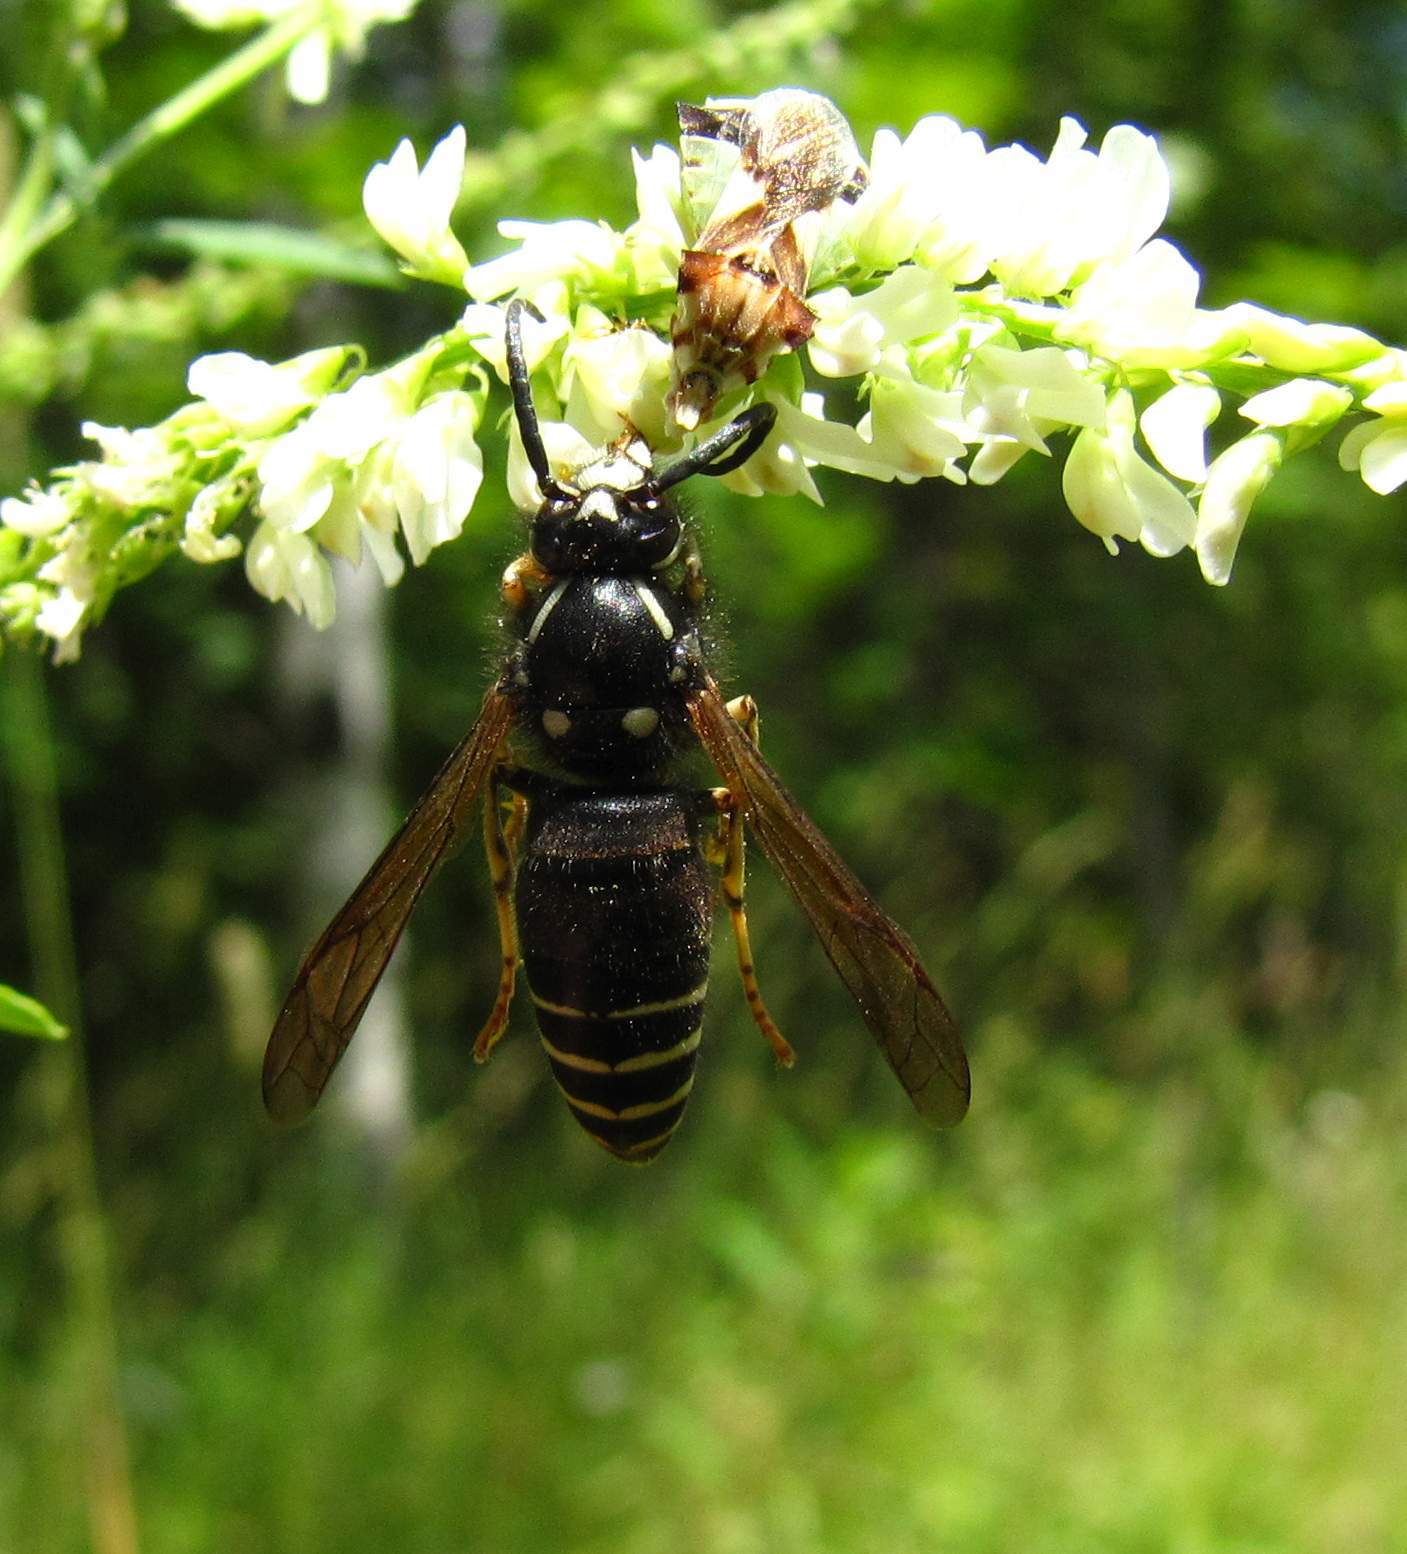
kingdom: Animalia
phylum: Arthropoda
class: Insecta
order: Hymenoptera
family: Vespidae
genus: Dolichovespula
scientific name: Dolichovespula adulterina
